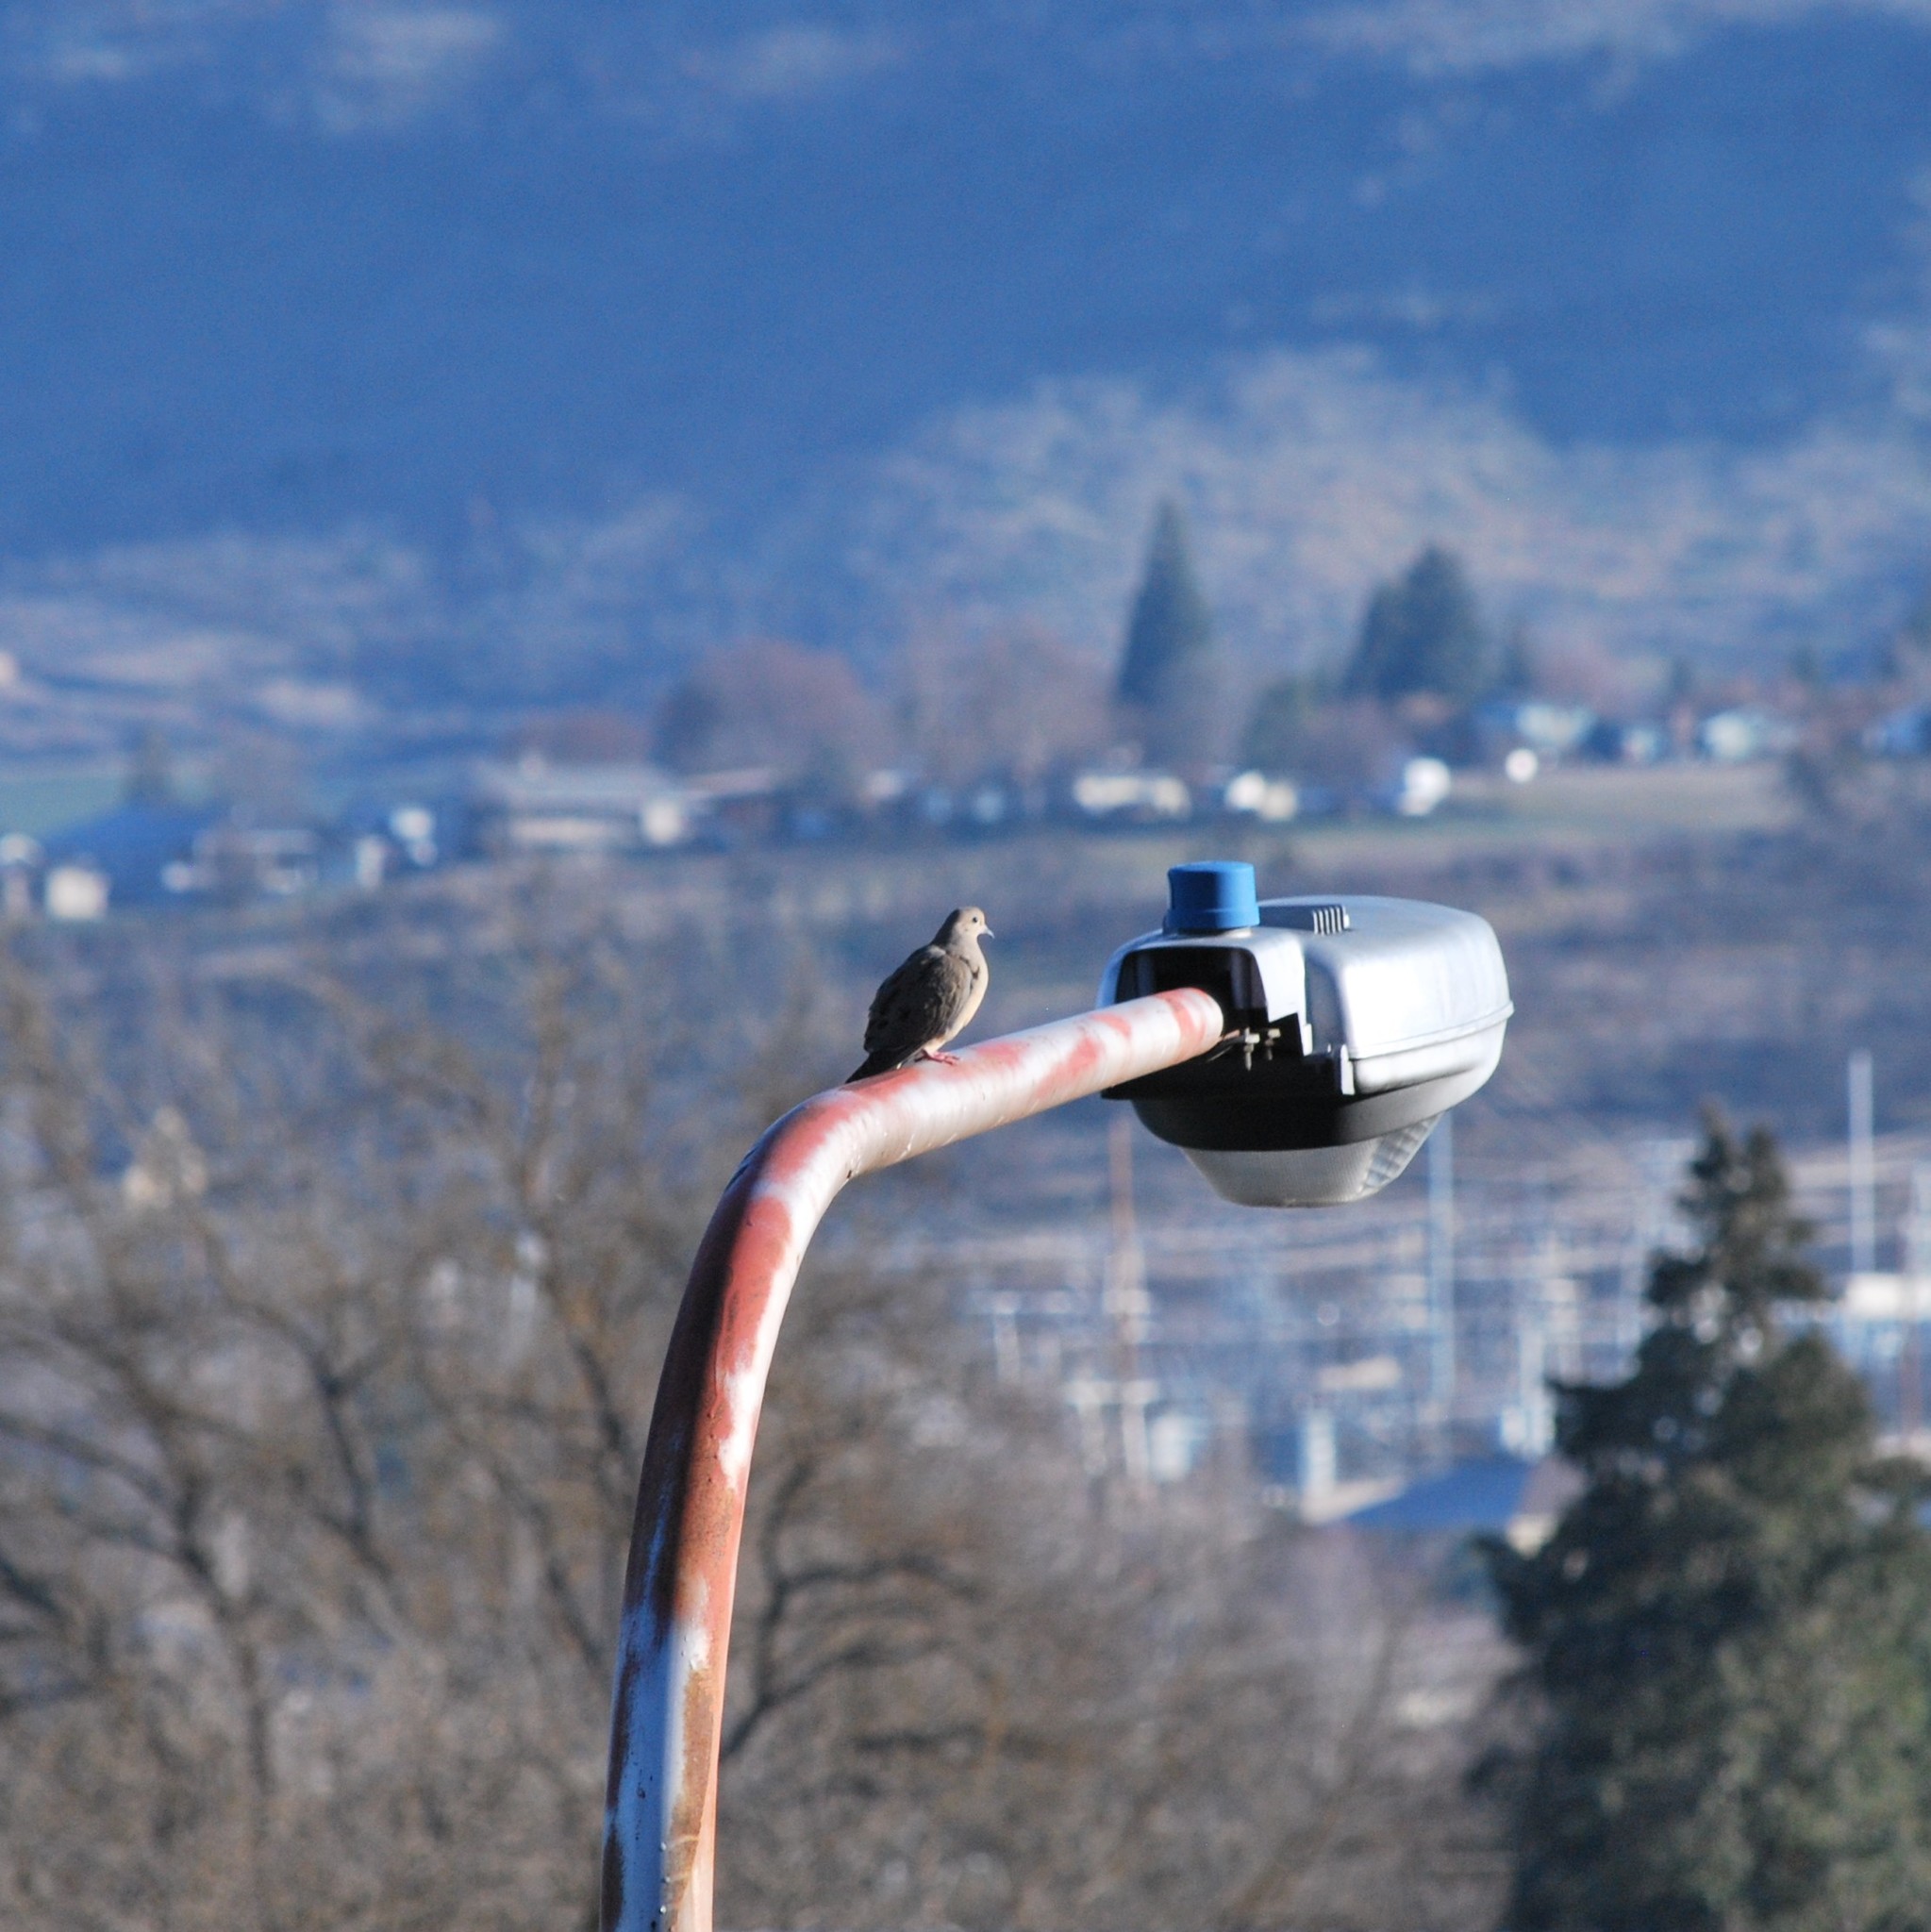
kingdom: Animalia
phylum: Chordata
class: Aves
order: Columbiformes
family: Columbidae
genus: Zenaida
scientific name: Zenaida macroura
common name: Mourning dove
